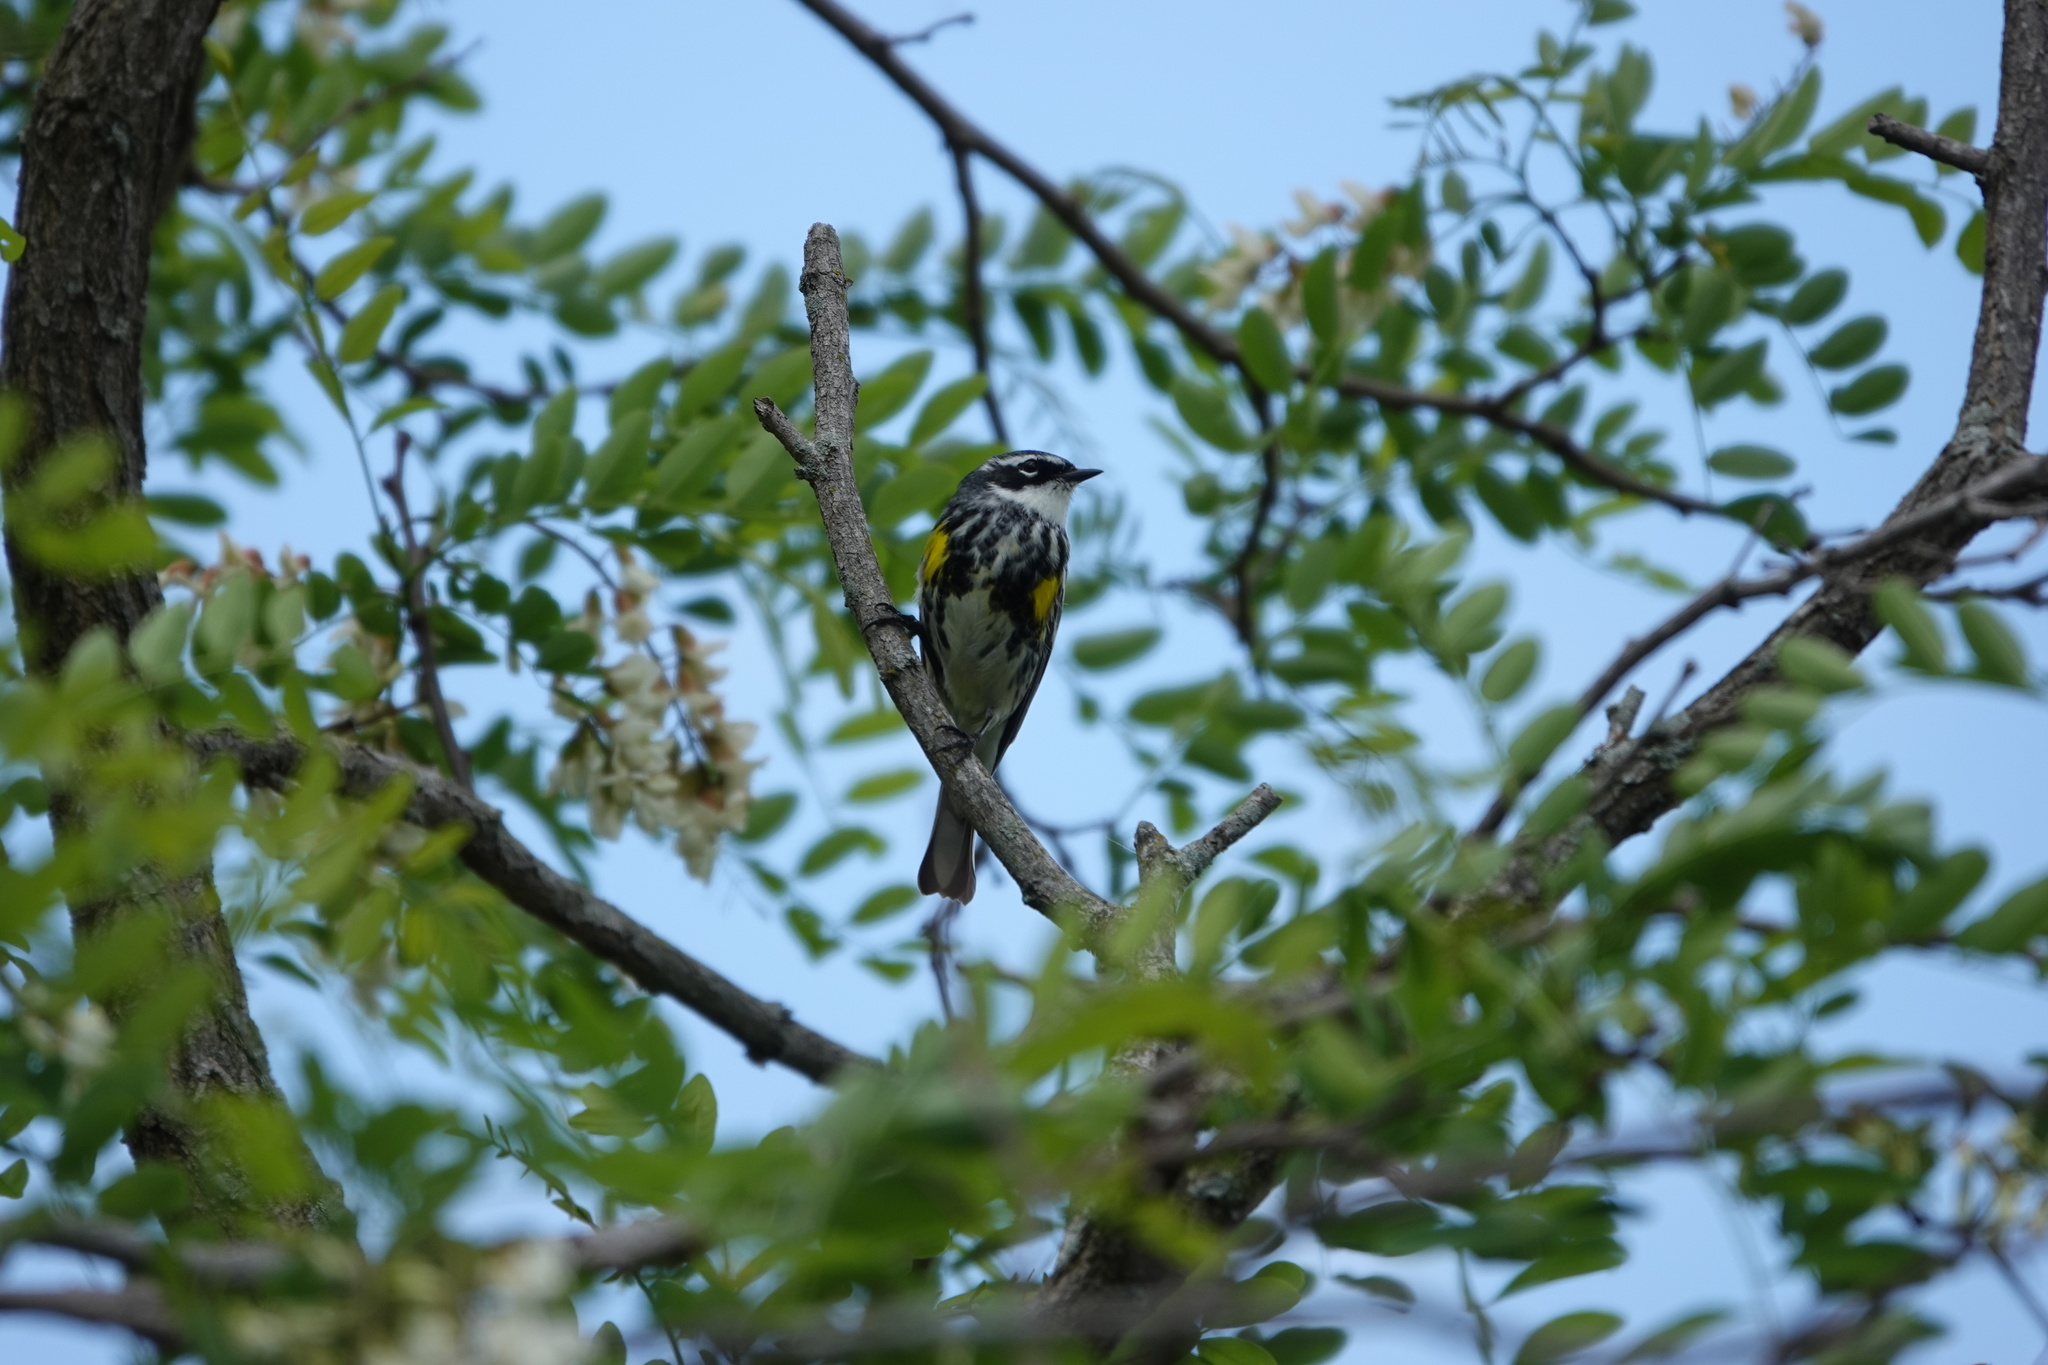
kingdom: Animalia
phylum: Chordata
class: Aves
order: Passeriformes
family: Parulidae
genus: Setophaga
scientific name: Setophaga coronata
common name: Myrtle warbler
